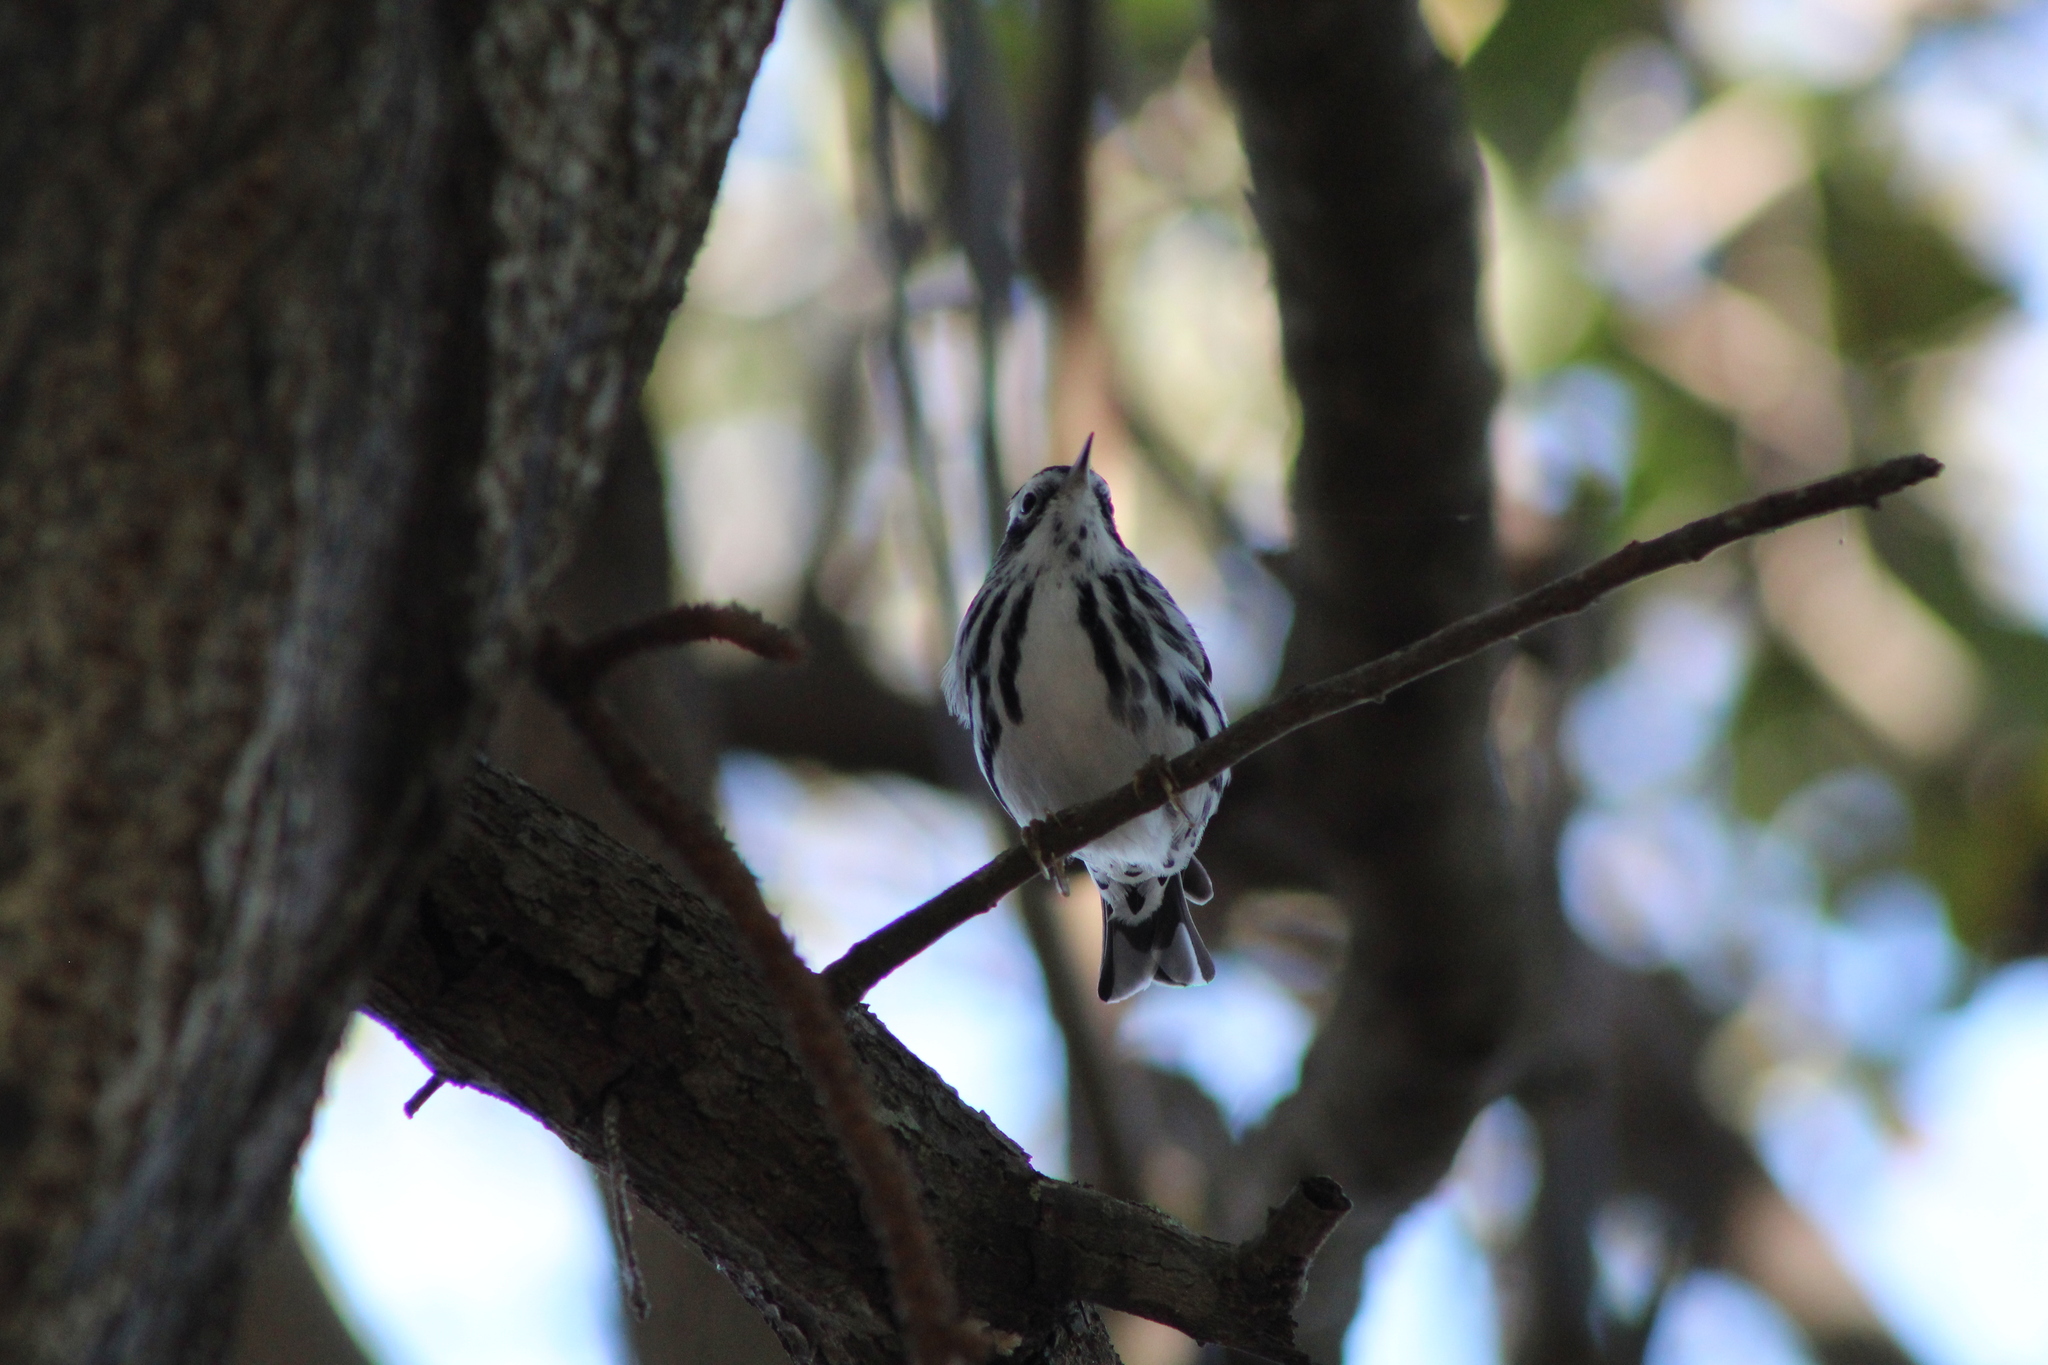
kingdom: Animalia
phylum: Chordata
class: Aves
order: Passeriformes
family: Parulidae
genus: Mniotilta
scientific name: Mniotilta varia
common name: Black-and-white warbler
